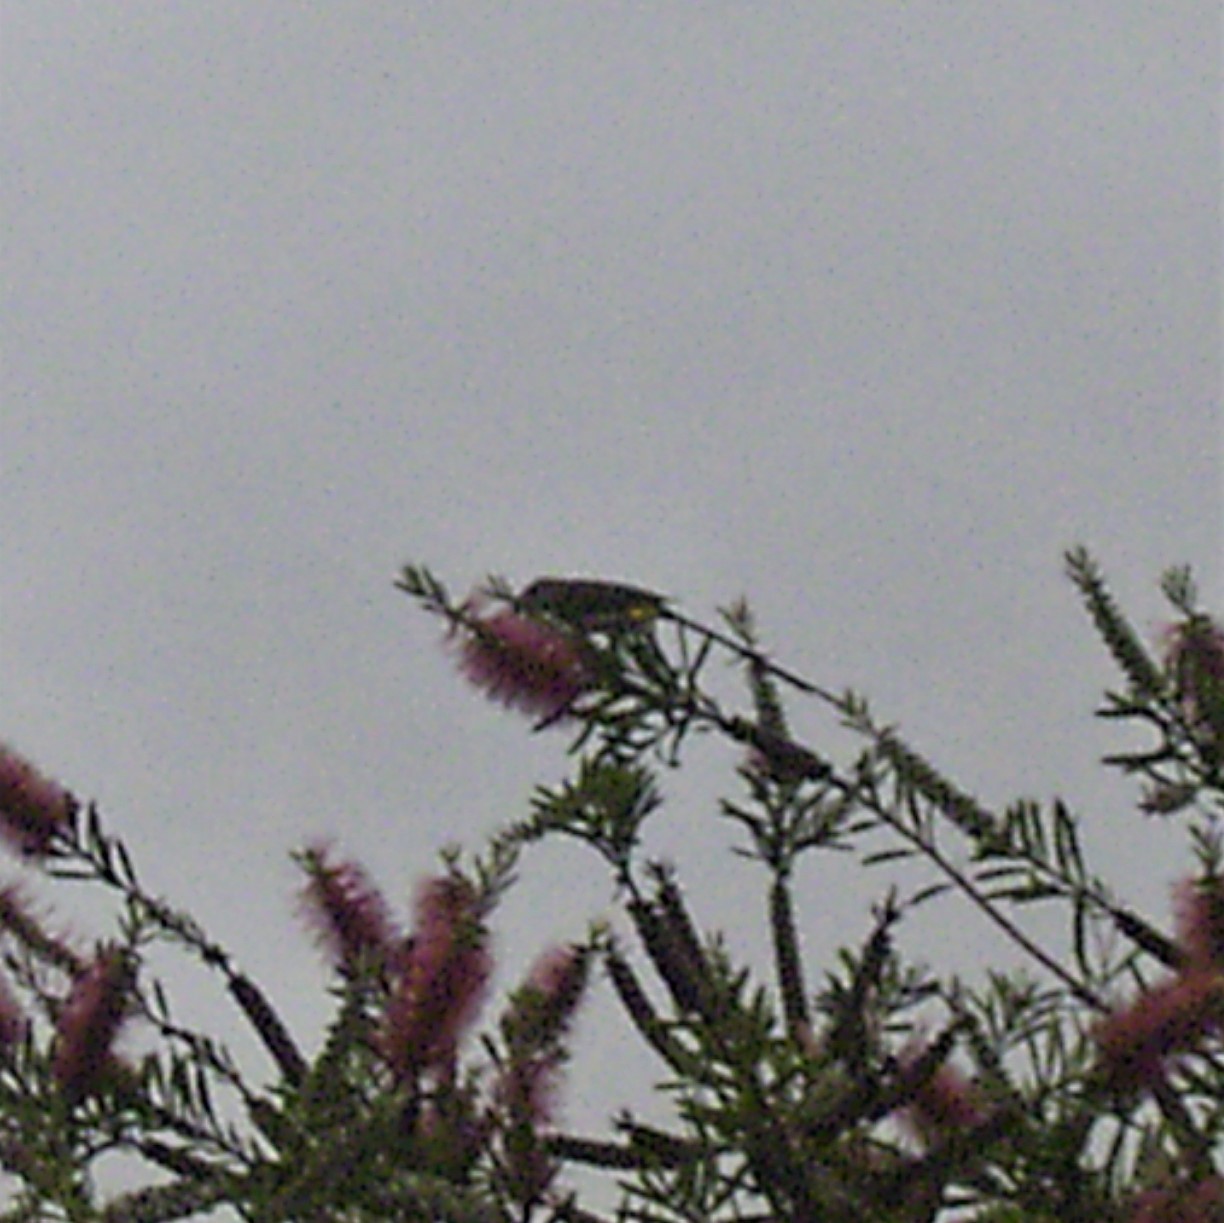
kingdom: Animalia
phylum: Chordata
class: Aves
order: Passeriformes
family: Promeropidae
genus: Promerops
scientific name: Promerops cafer
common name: Cape sugarbird
